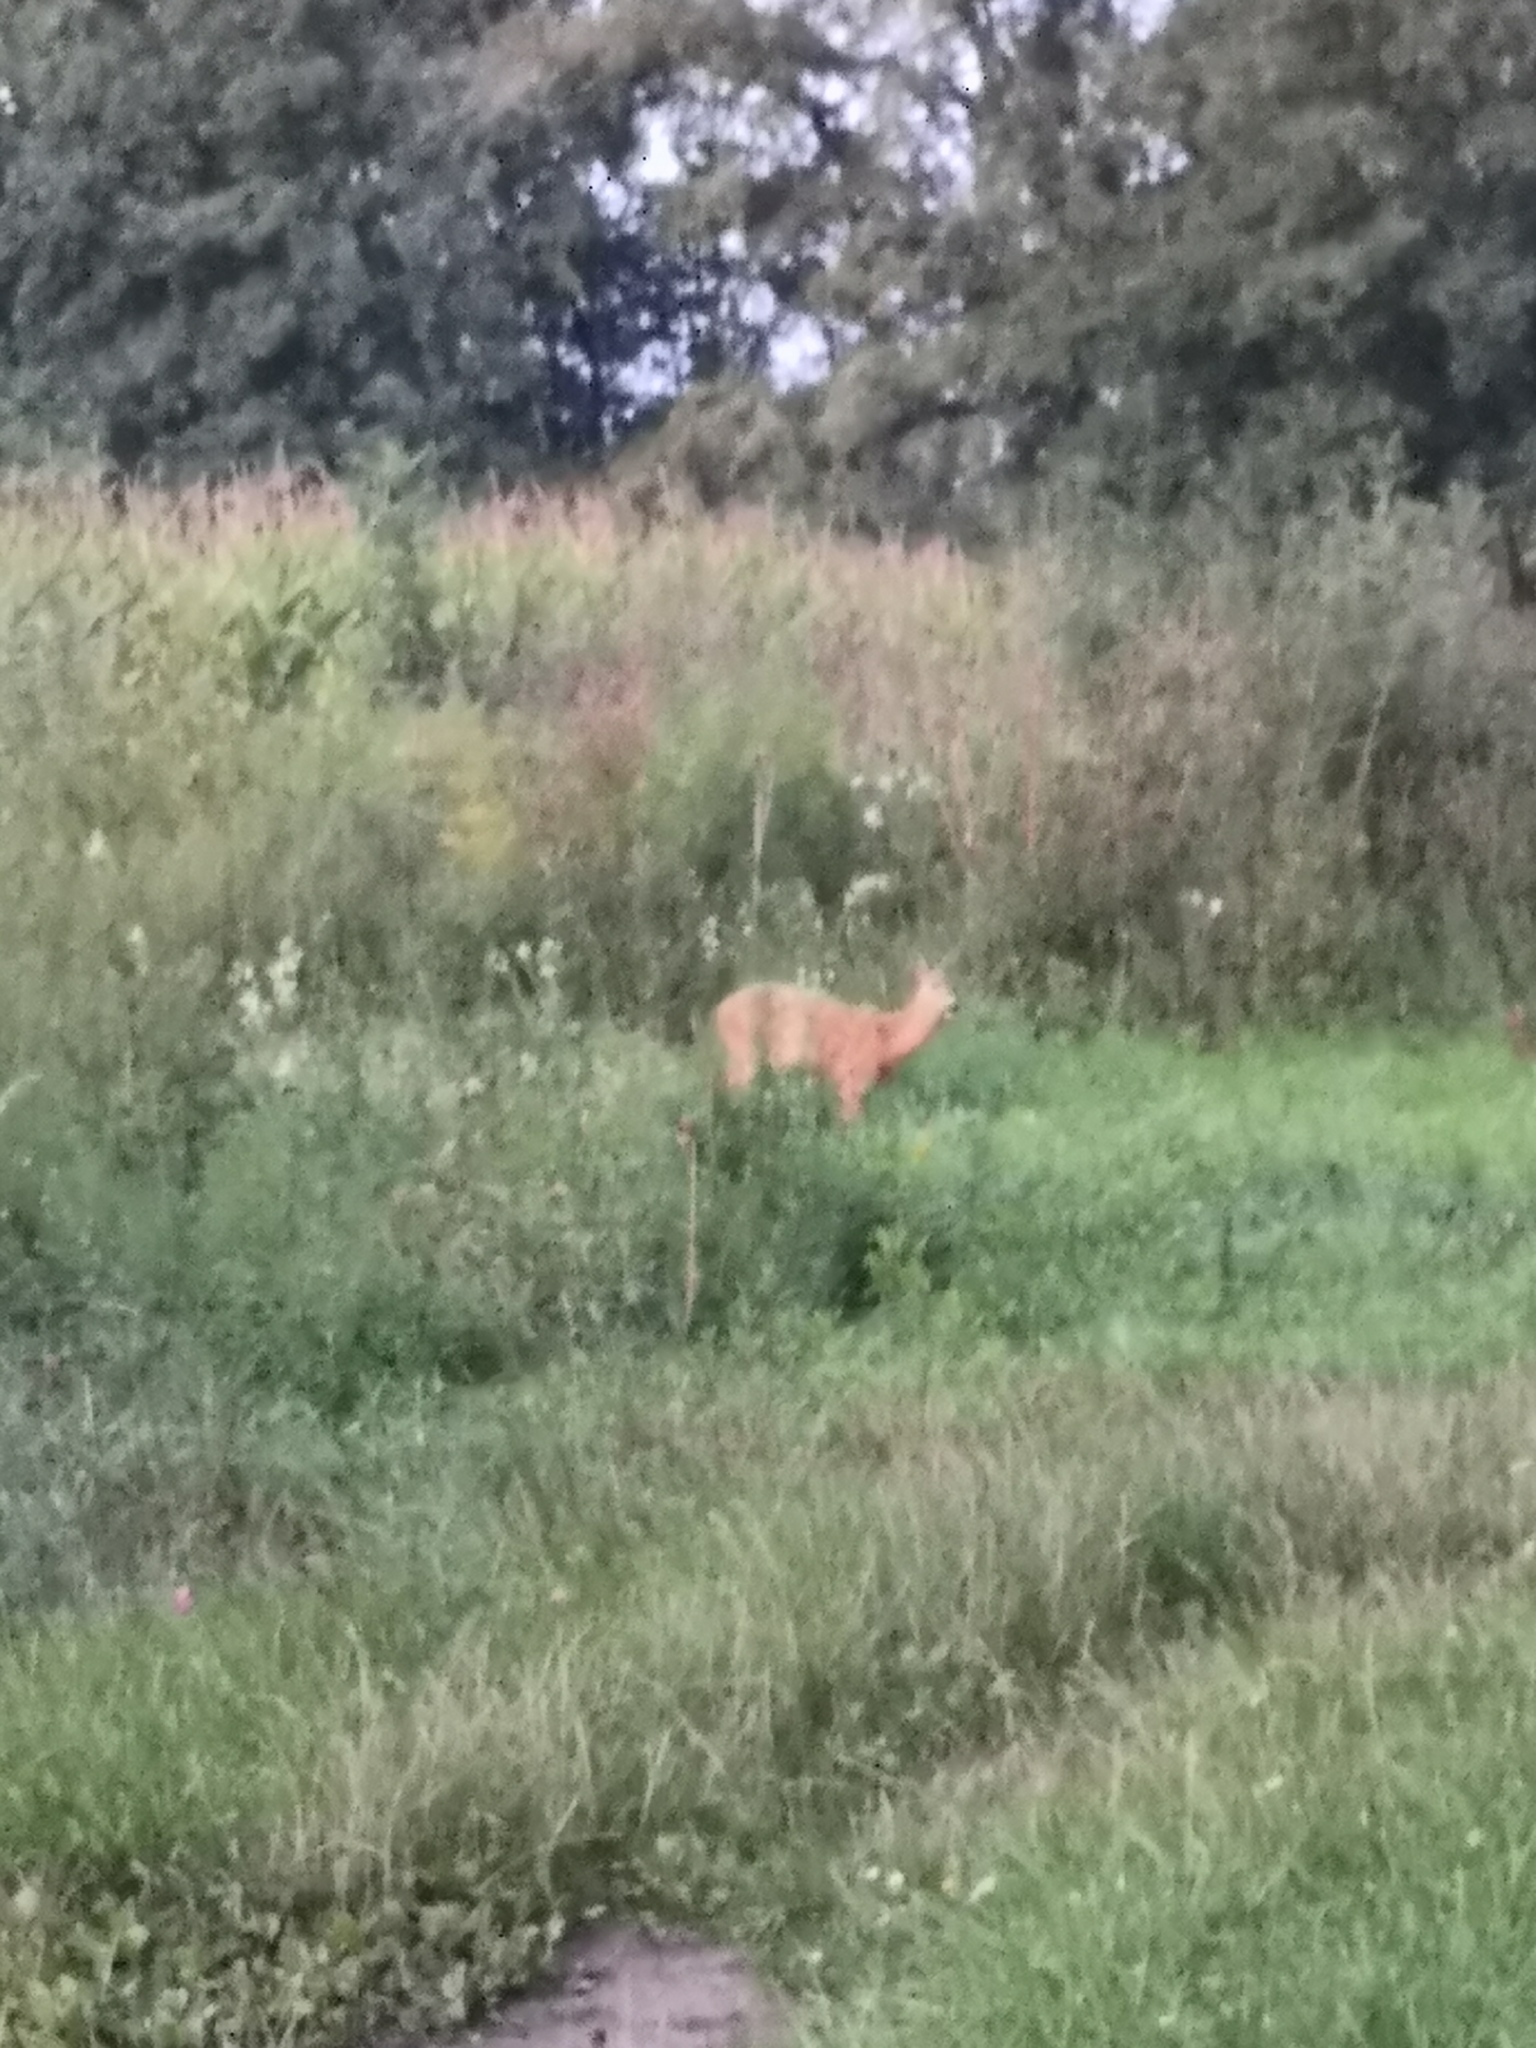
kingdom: Animalia
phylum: Chordata
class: Mammalia
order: Artiodactyla
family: Cervidae
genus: Capreolus
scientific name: Capreolus capreolus
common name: Western roe deer
